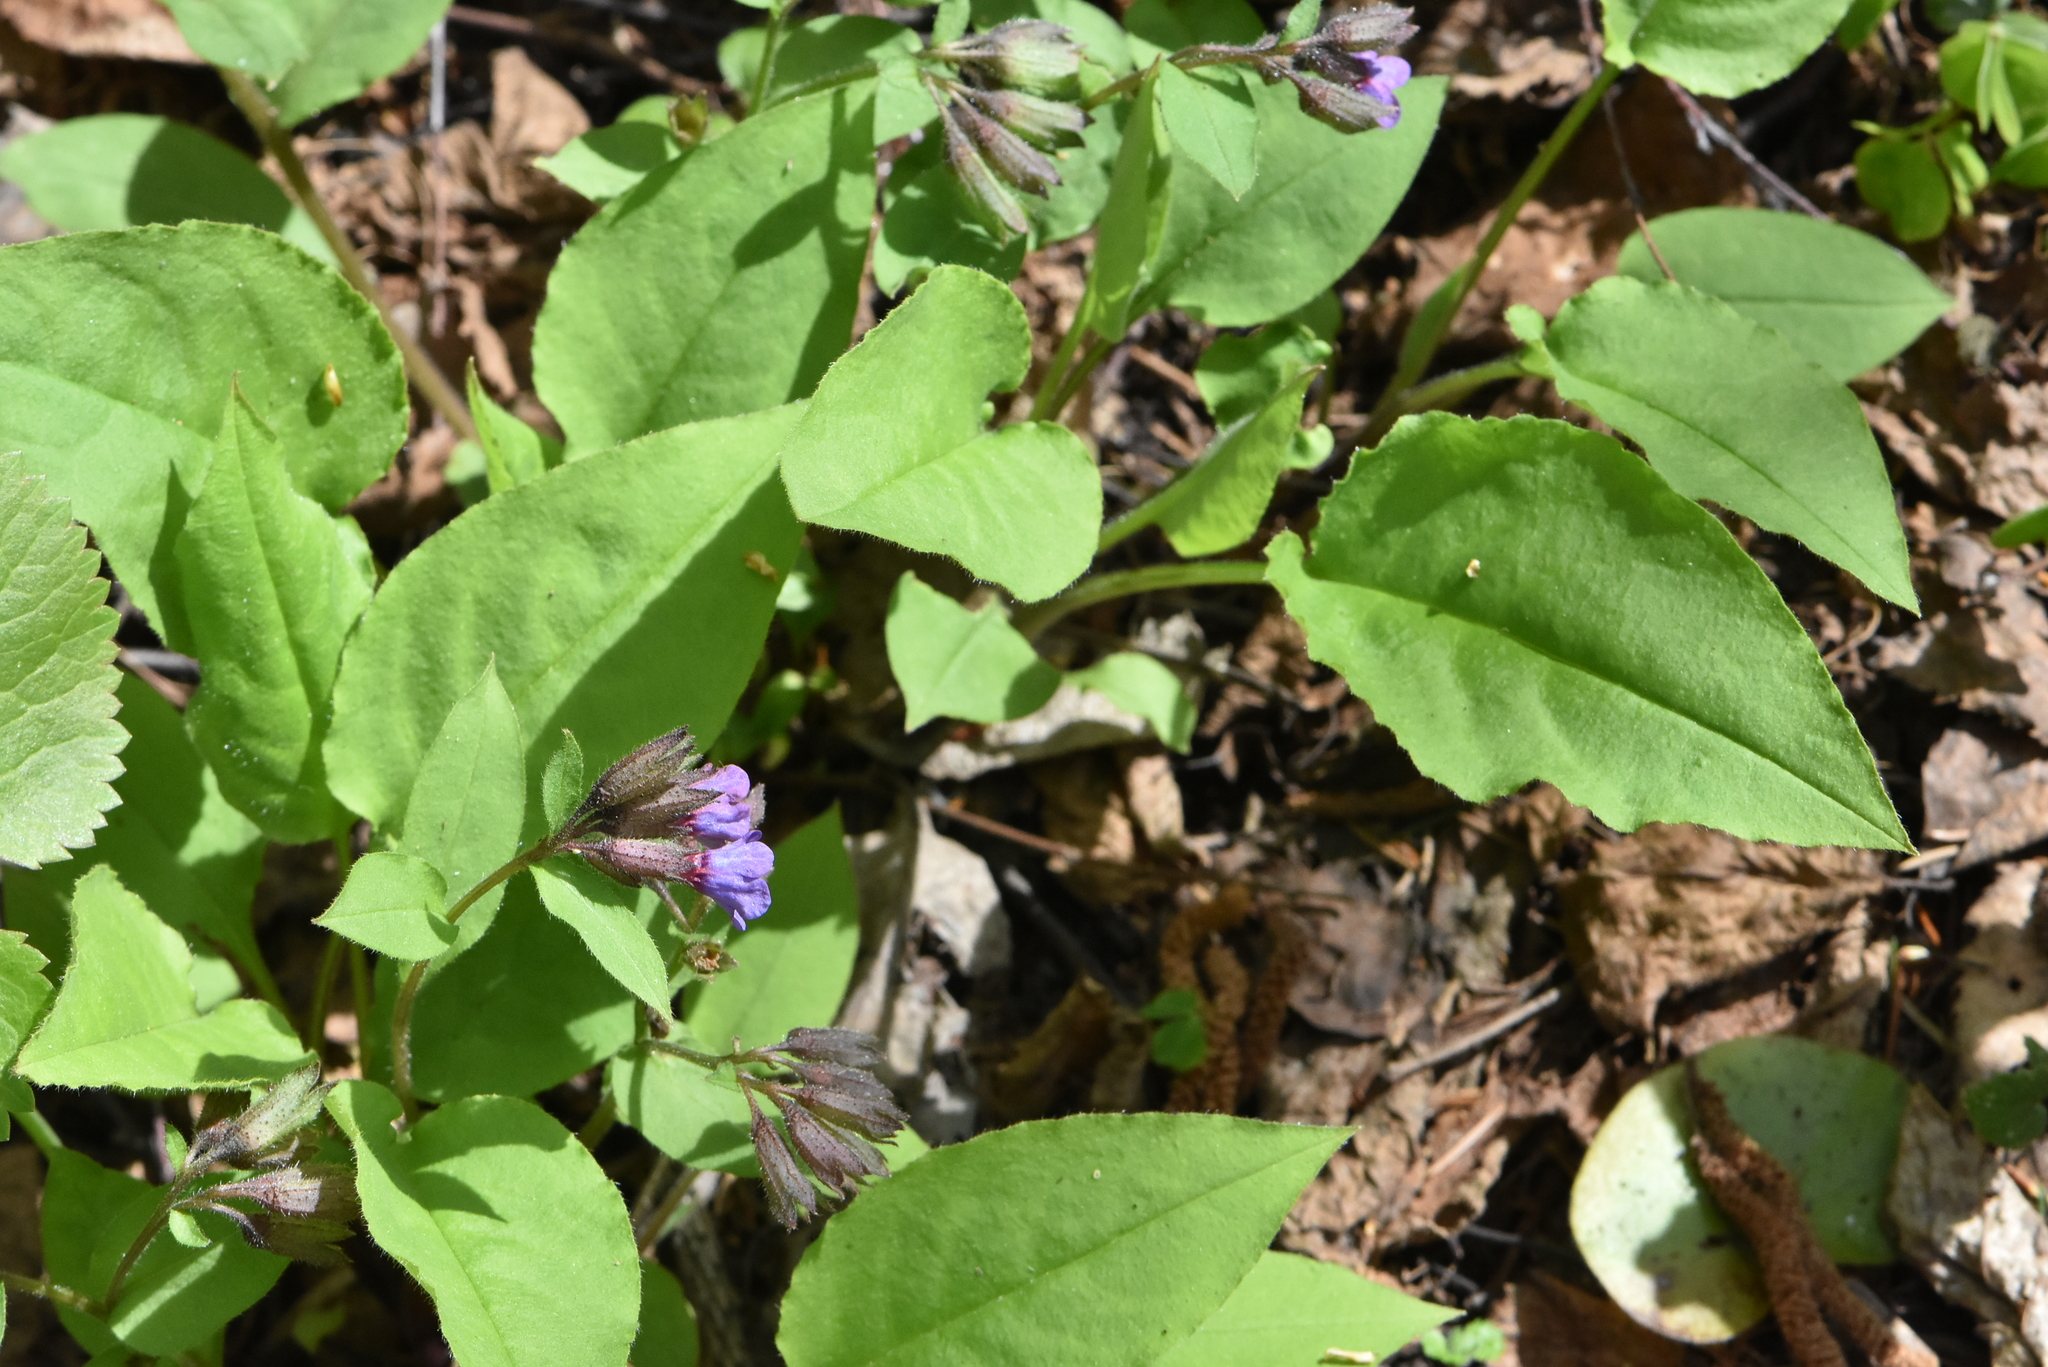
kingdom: Plantae
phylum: Tracheophyta
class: Magnoliopsida
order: Boraginales
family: Boraginaceae
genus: Pulmonaria
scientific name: Pulmonaria obscura
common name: Suffolk lungwort
